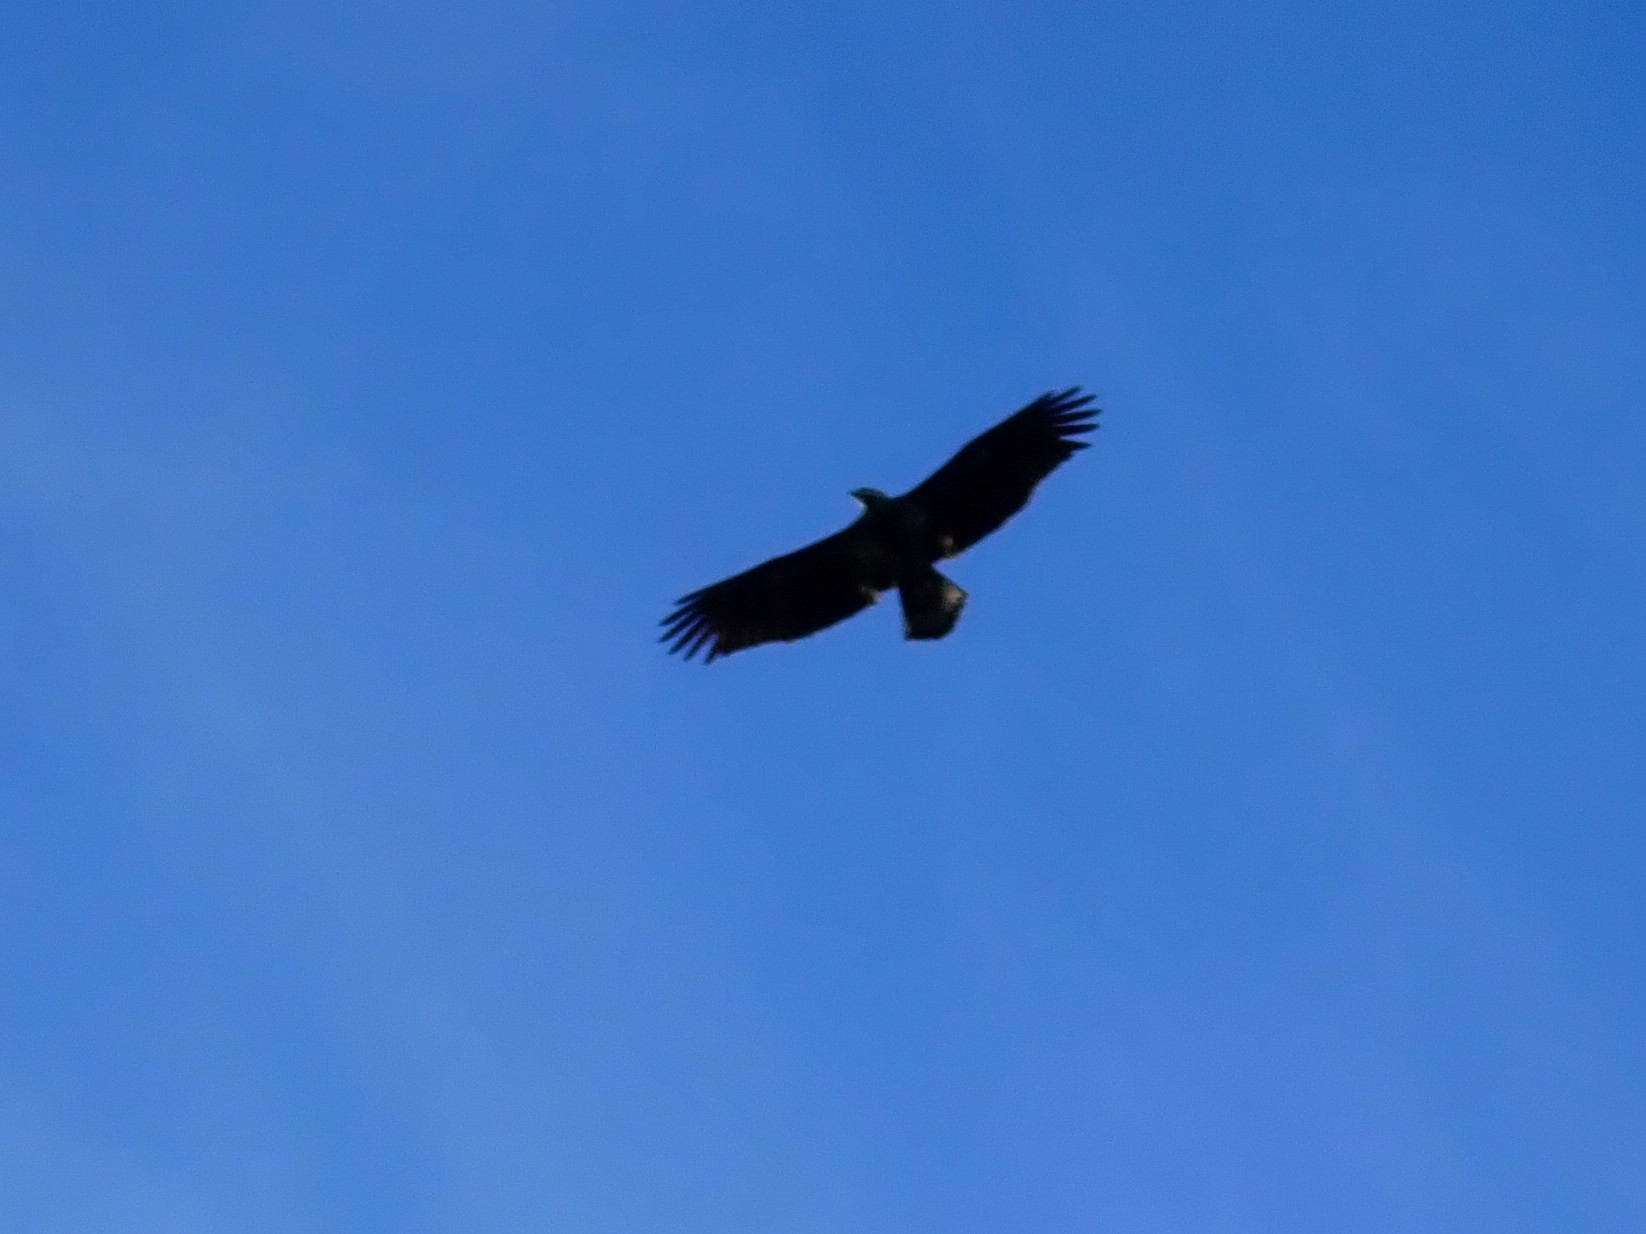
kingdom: Animalia
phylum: Chordata
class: Aves
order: Accipitriformes
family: Accipitridae
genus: Haliaeetus
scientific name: Haliaeetus leucocephalus
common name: Bald eagle
